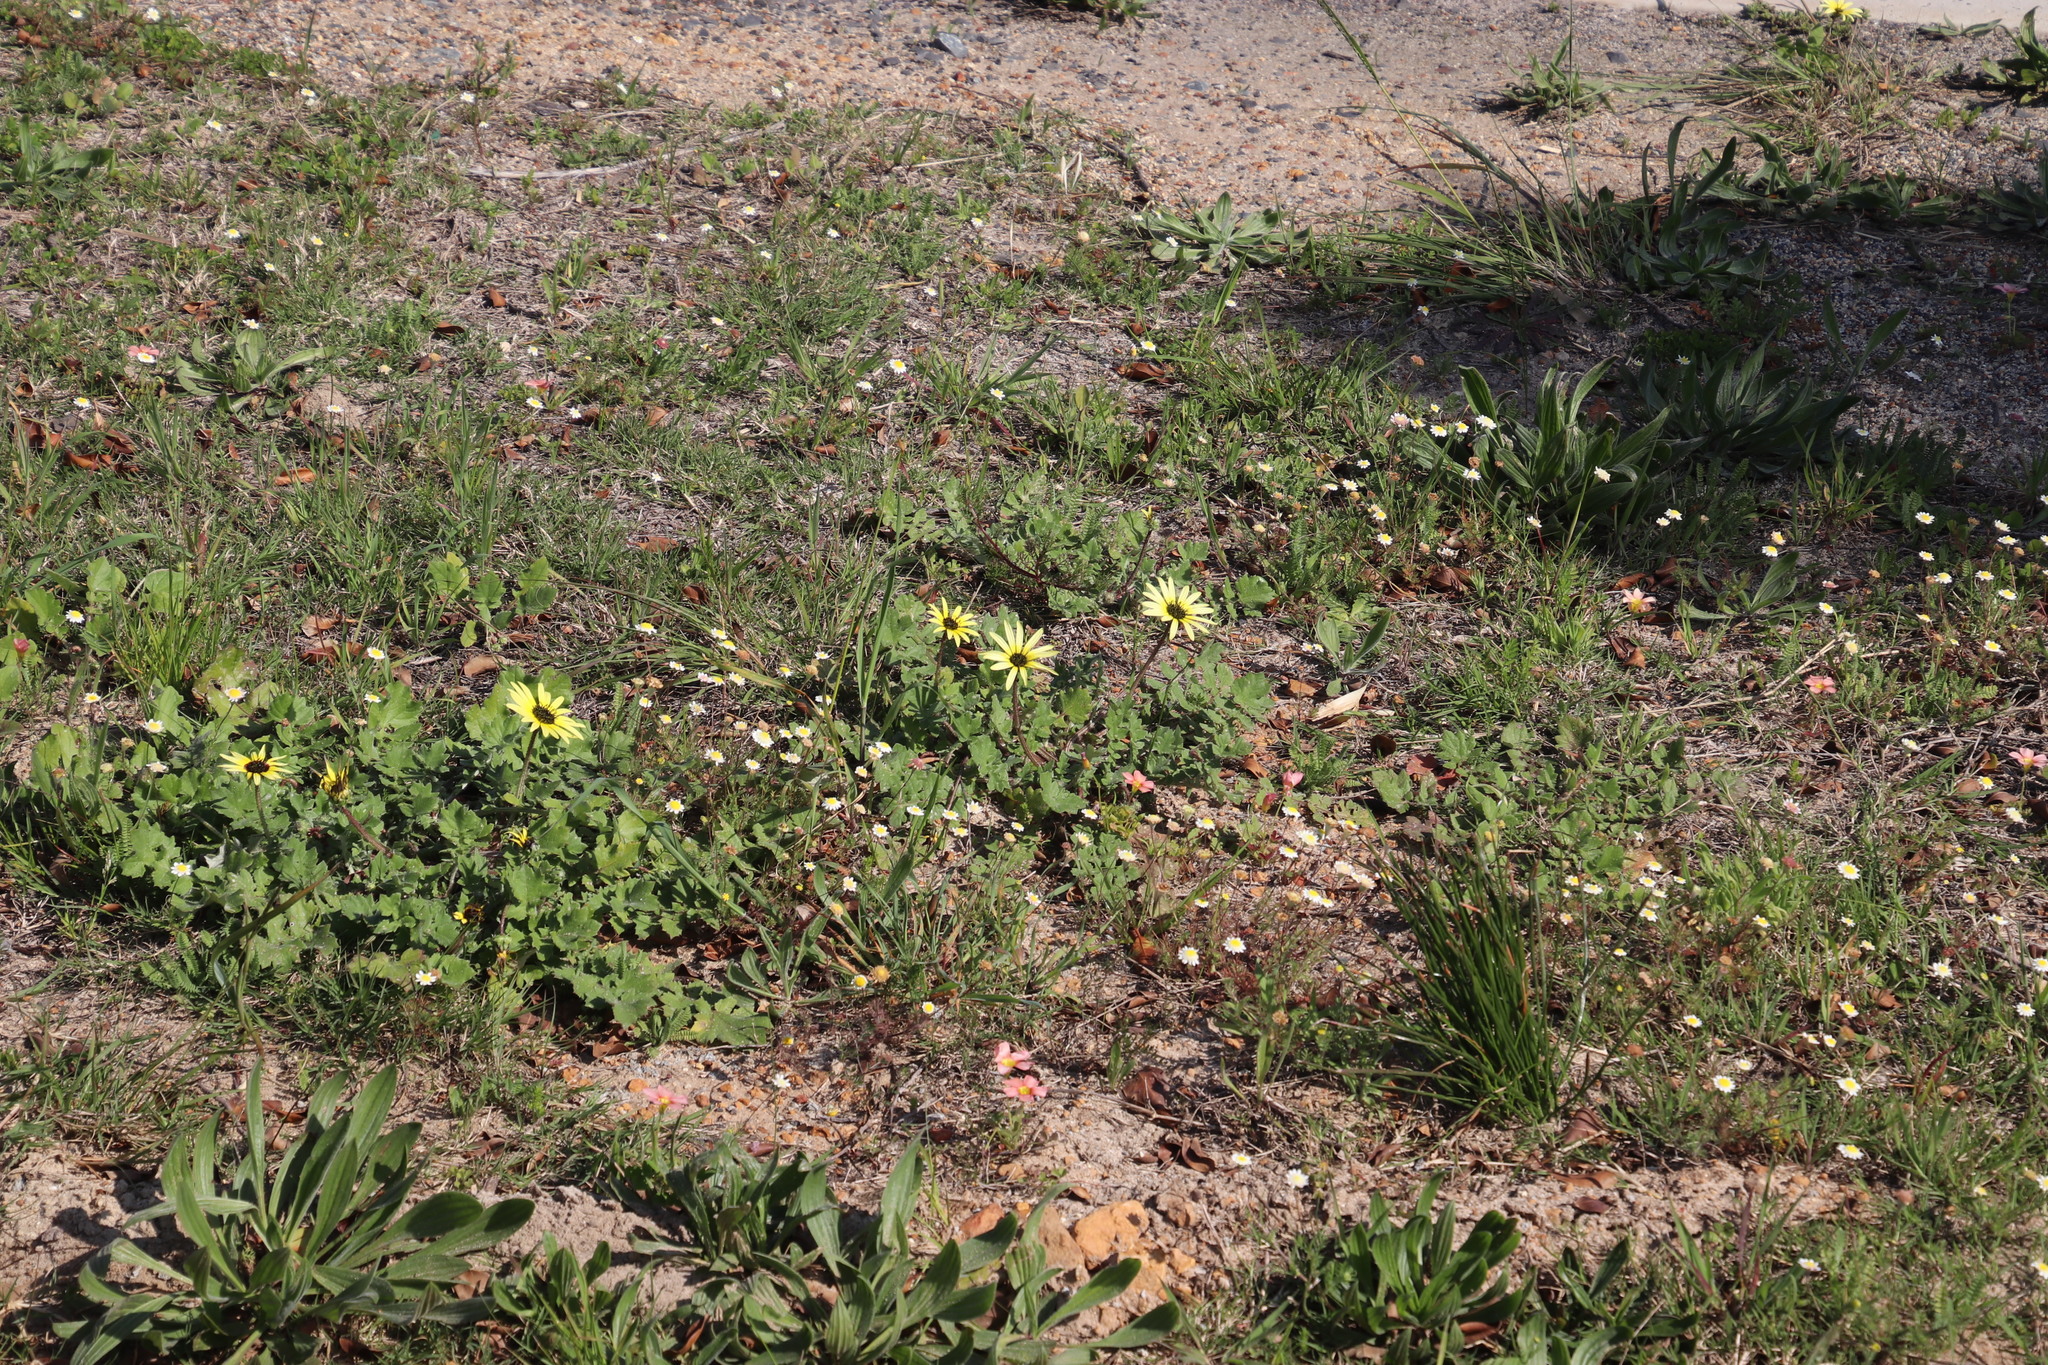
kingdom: Plantae
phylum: Tracheophyta
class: Magnoliopsida
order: Asterales
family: Asteraceae
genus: Arctotheca
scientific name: Arctotheca calendula
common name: Capeweed
